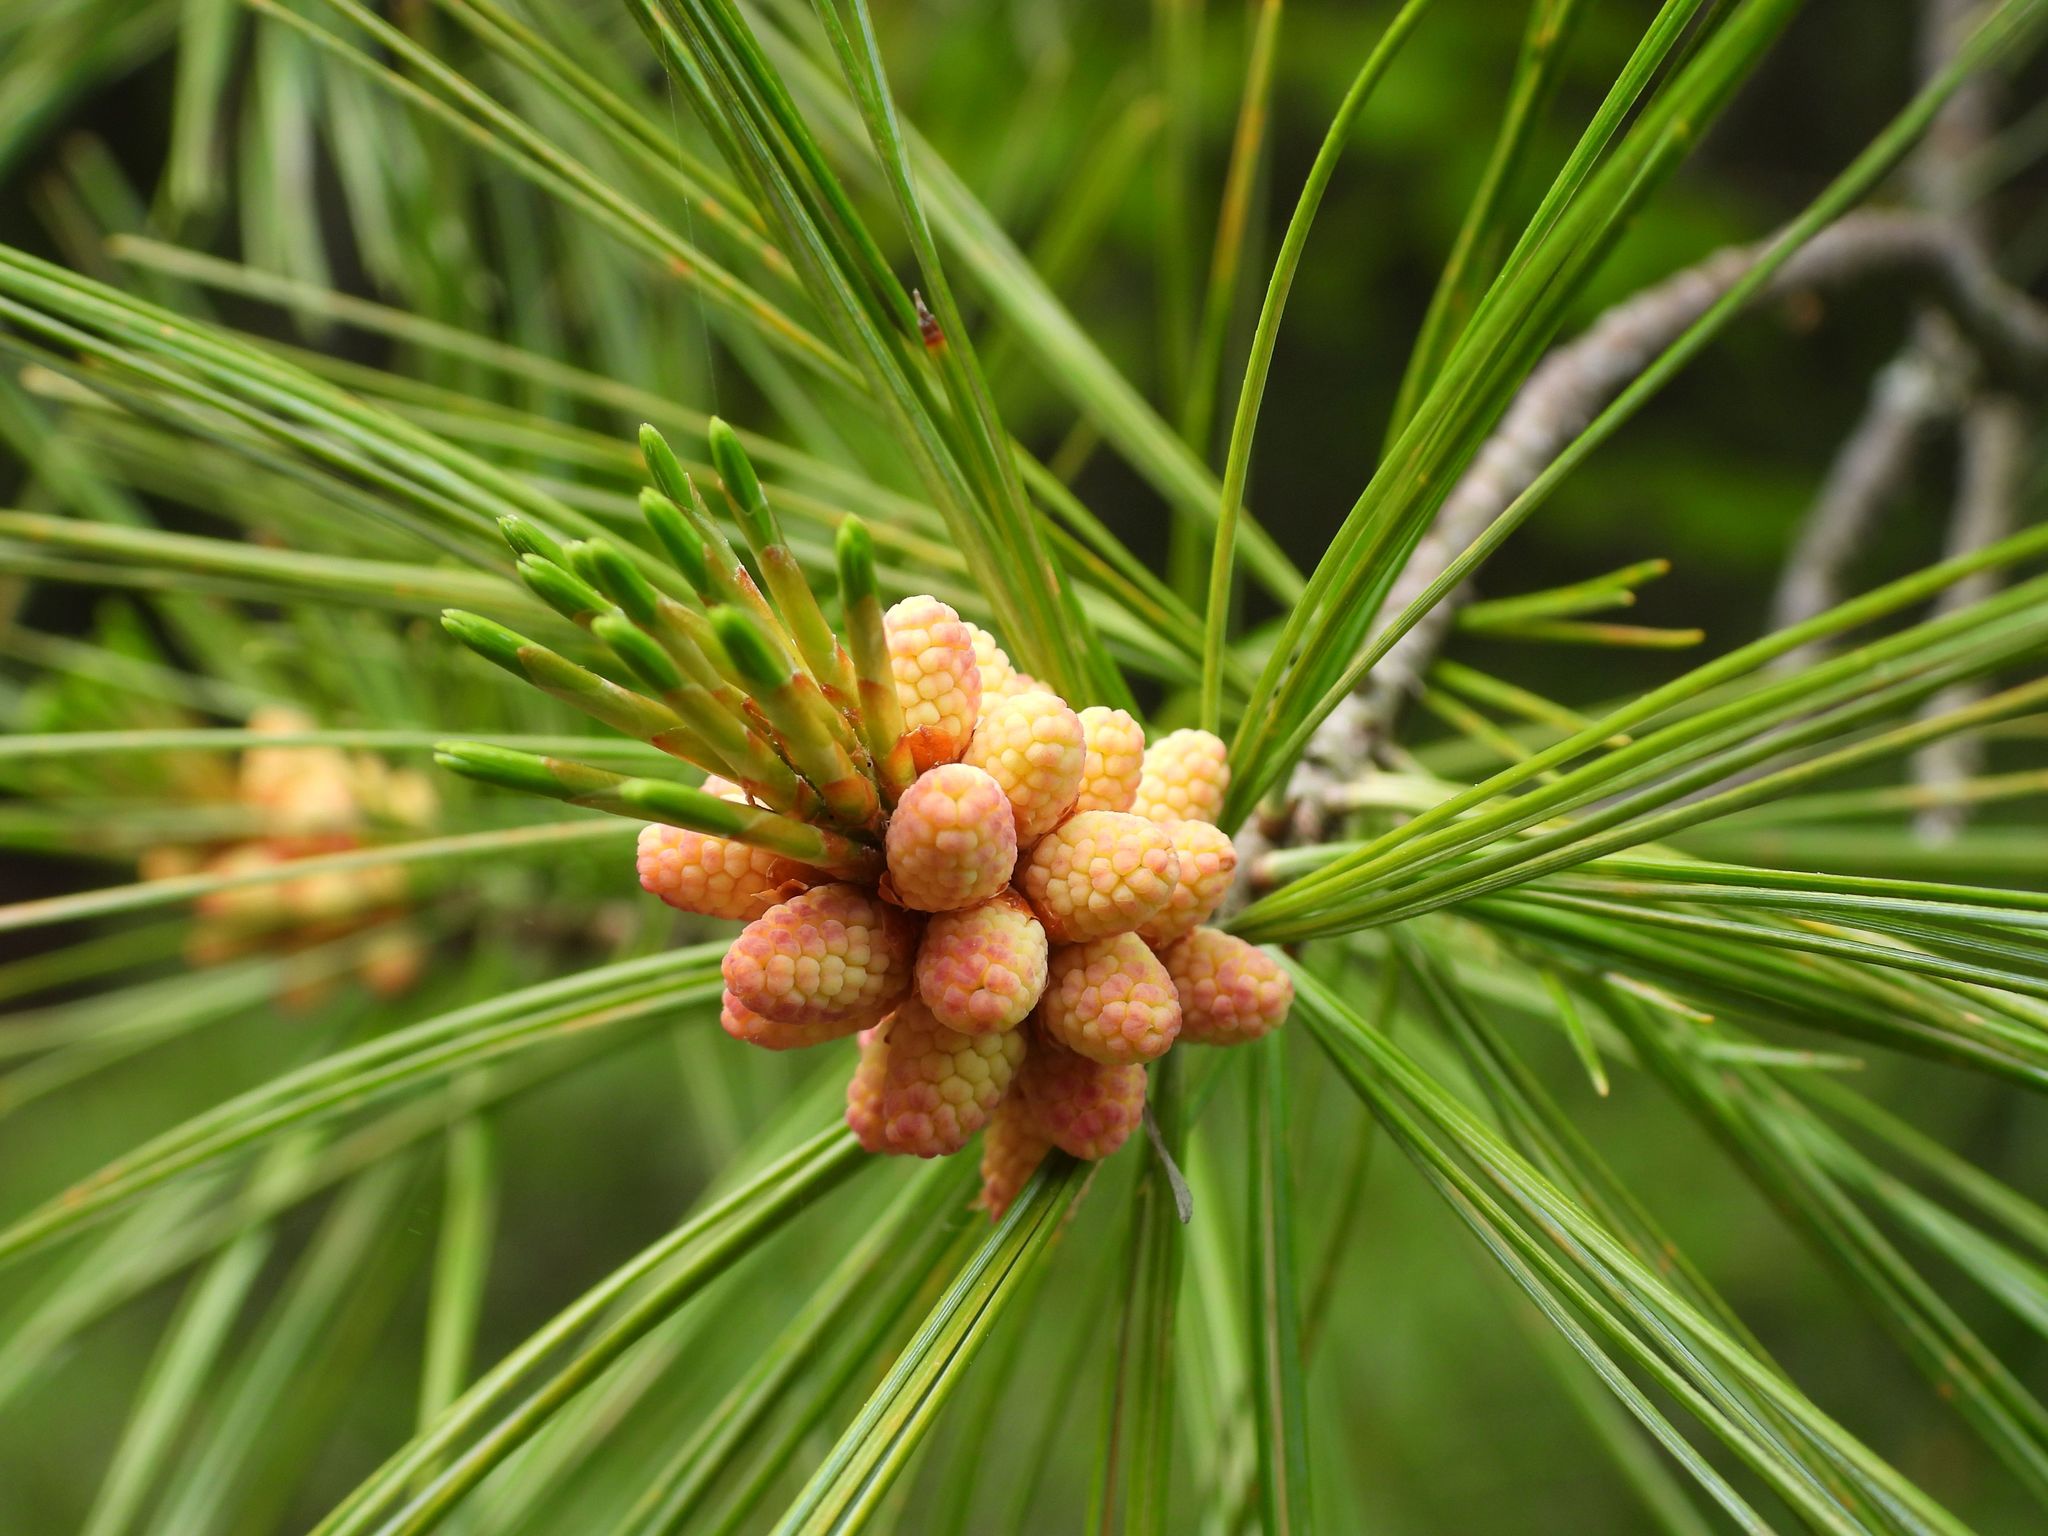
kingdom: Plantae
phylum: Tracheophyta
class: Pinopsida
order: Pinales
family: Pinaceae
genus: Pinus
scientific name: Pinus strobus
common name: Weymouth pine
